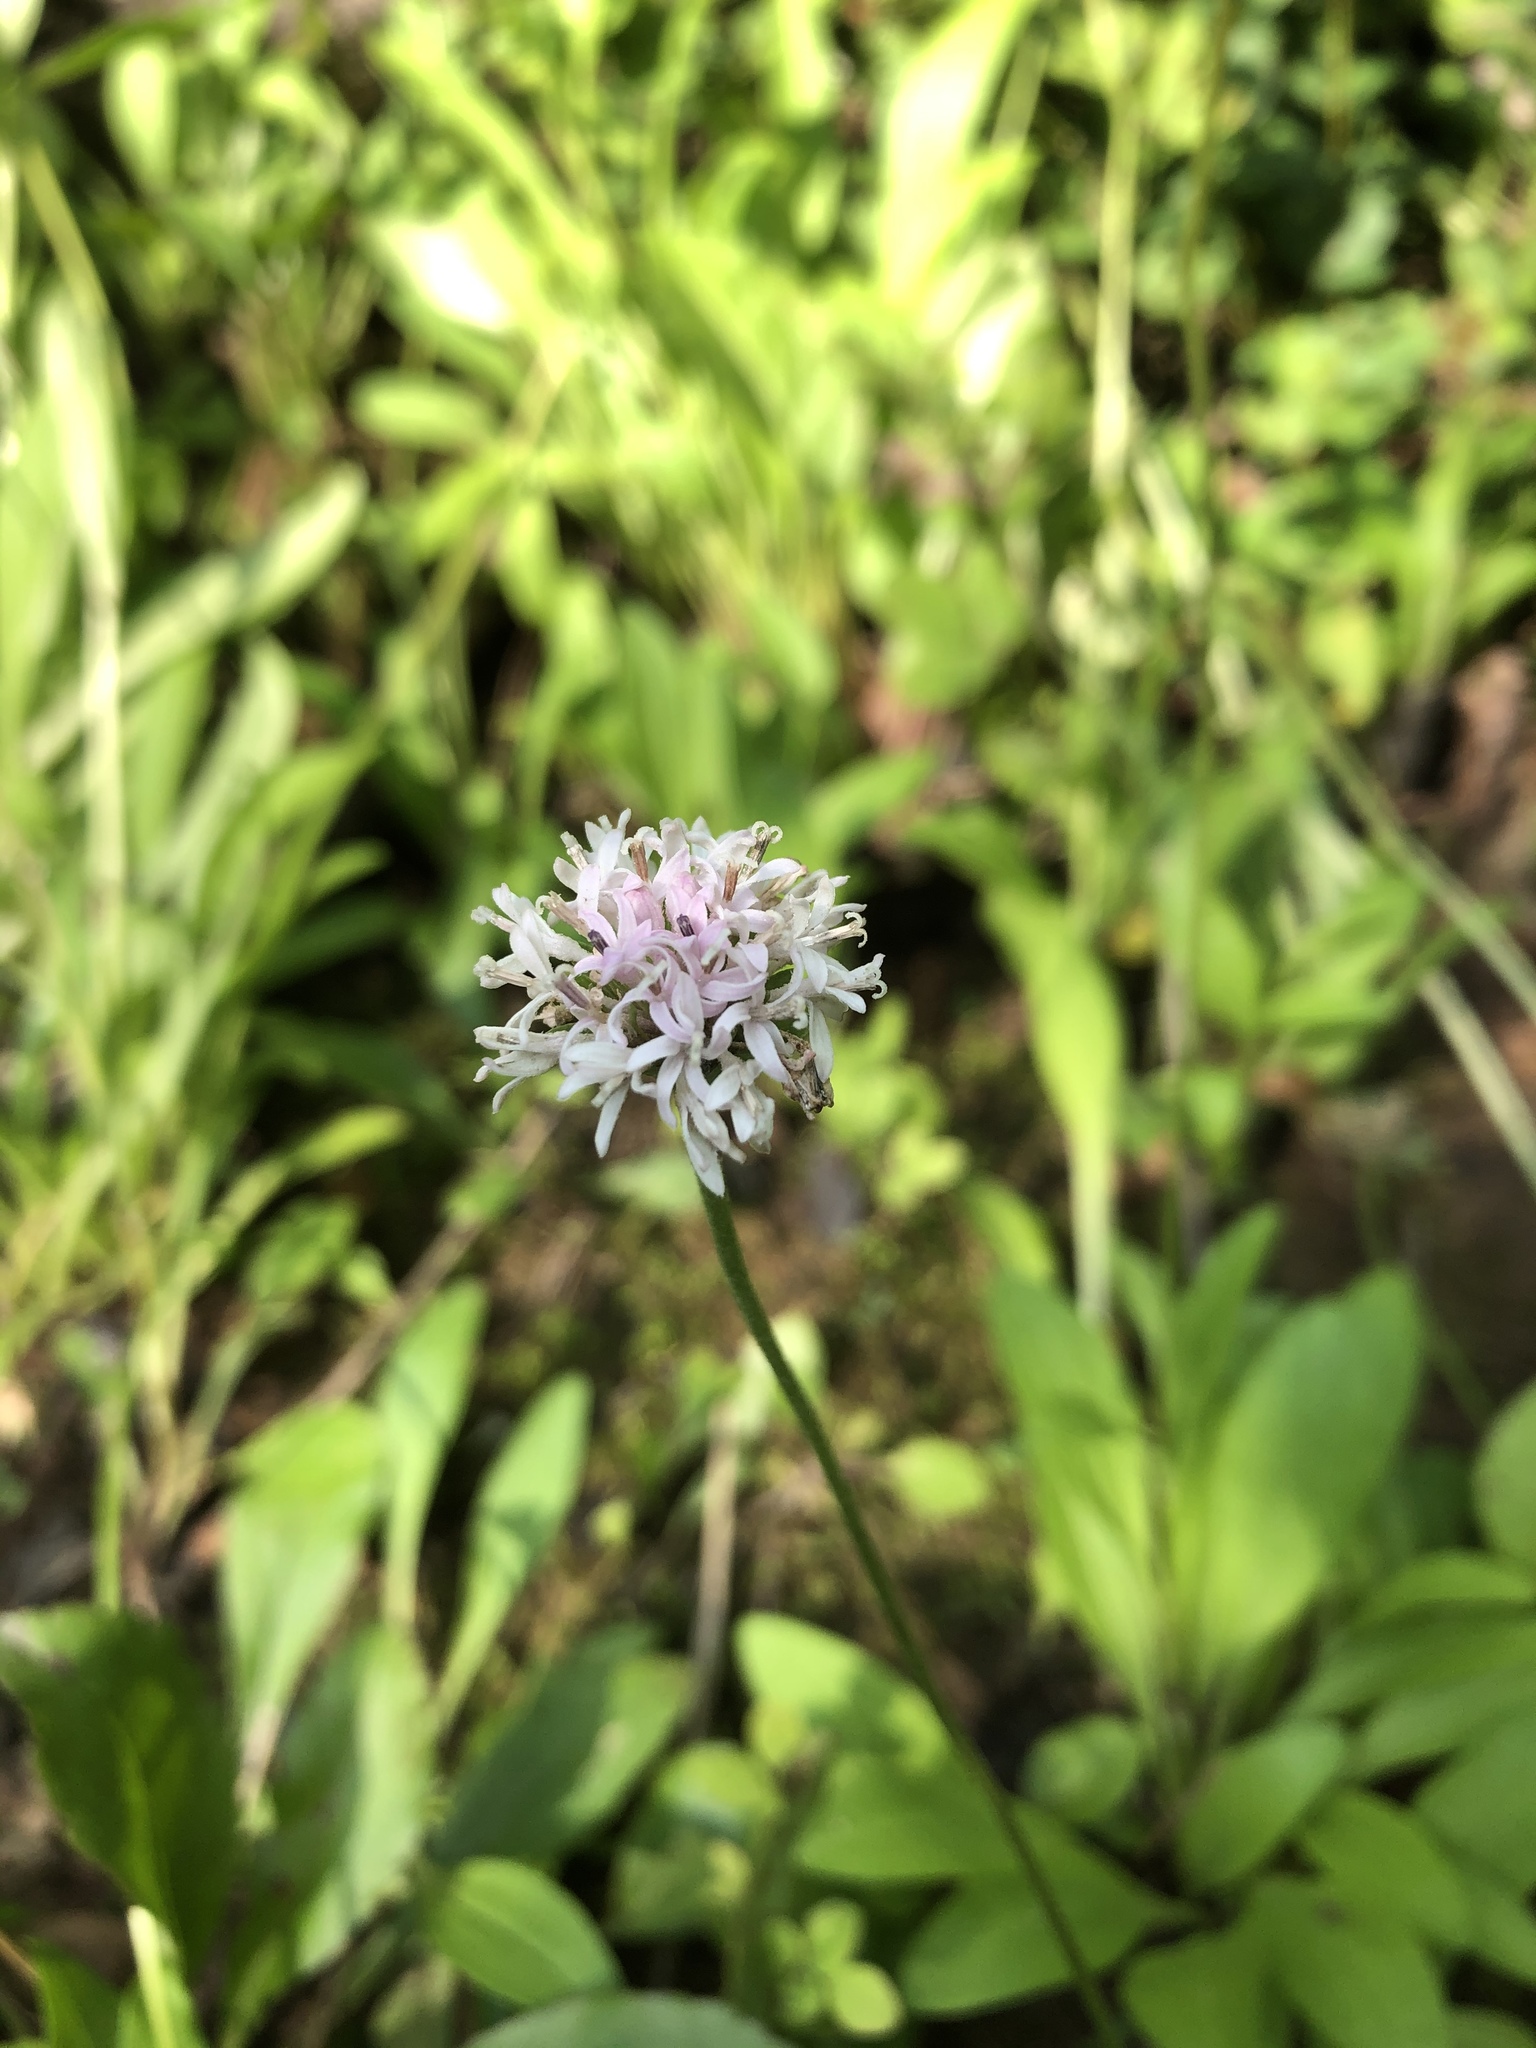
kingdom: Plantae
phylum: Tracheophyta
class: Magnoliopsida
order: Asterales
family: Asteraceae
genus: Marshallia
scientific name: Marshallia obovata
